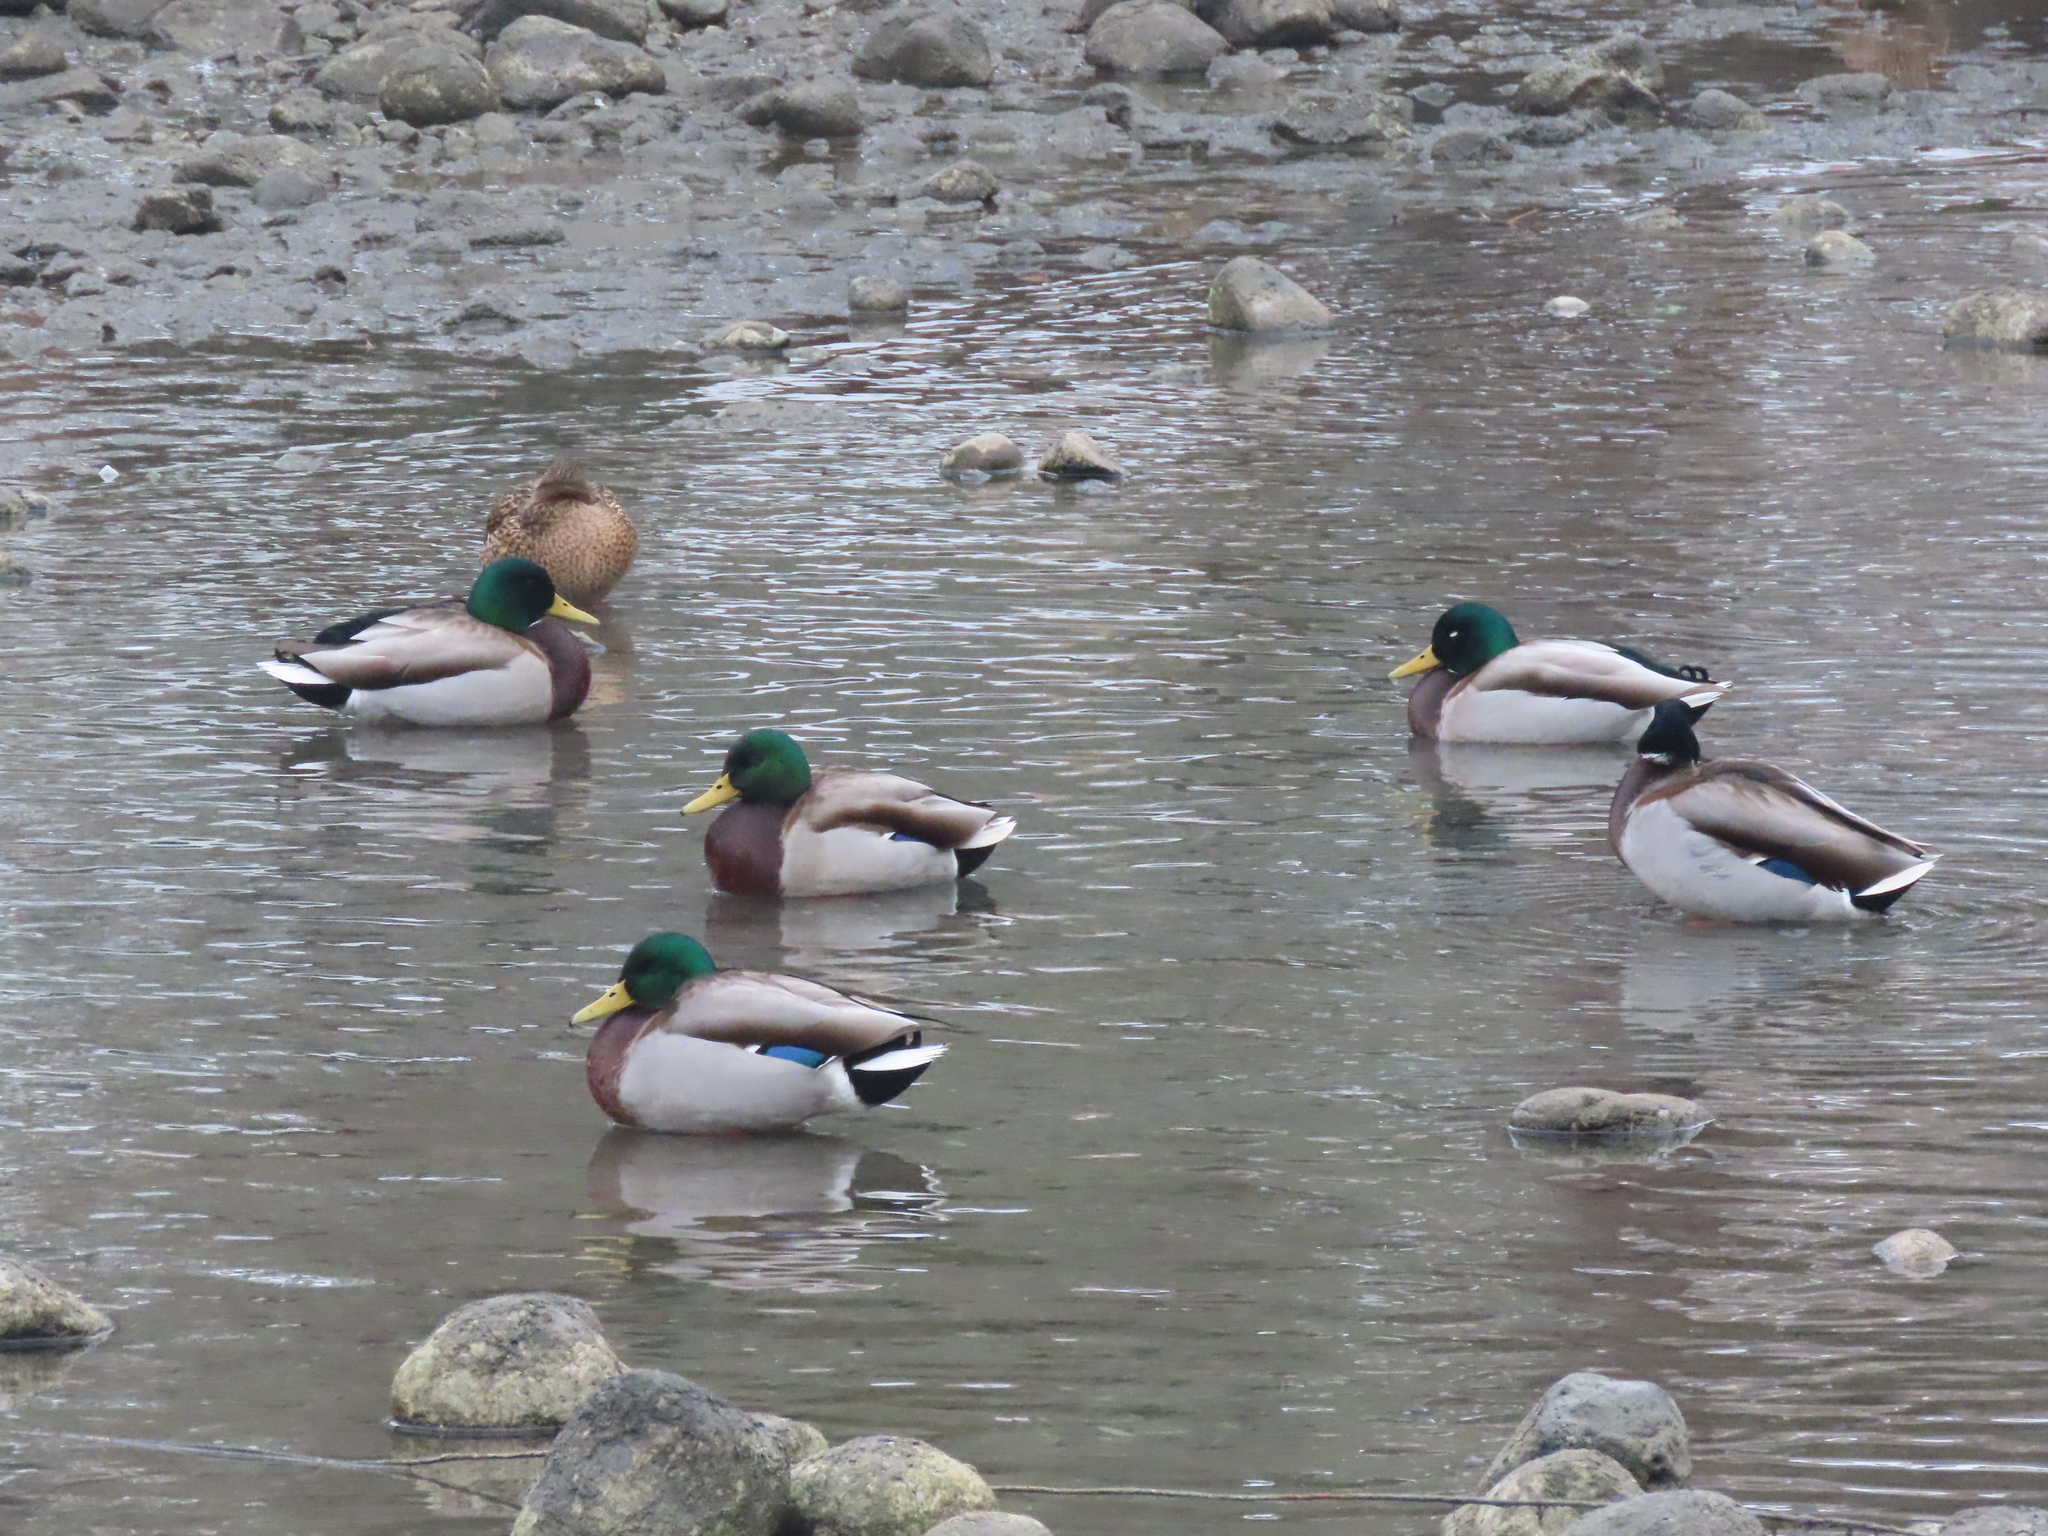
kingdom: Animalia
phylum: Chordata
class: Aves
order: Anseriformes
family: Anatidae
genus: Anas
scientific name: Anas platyrhynchos
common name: Mallard
